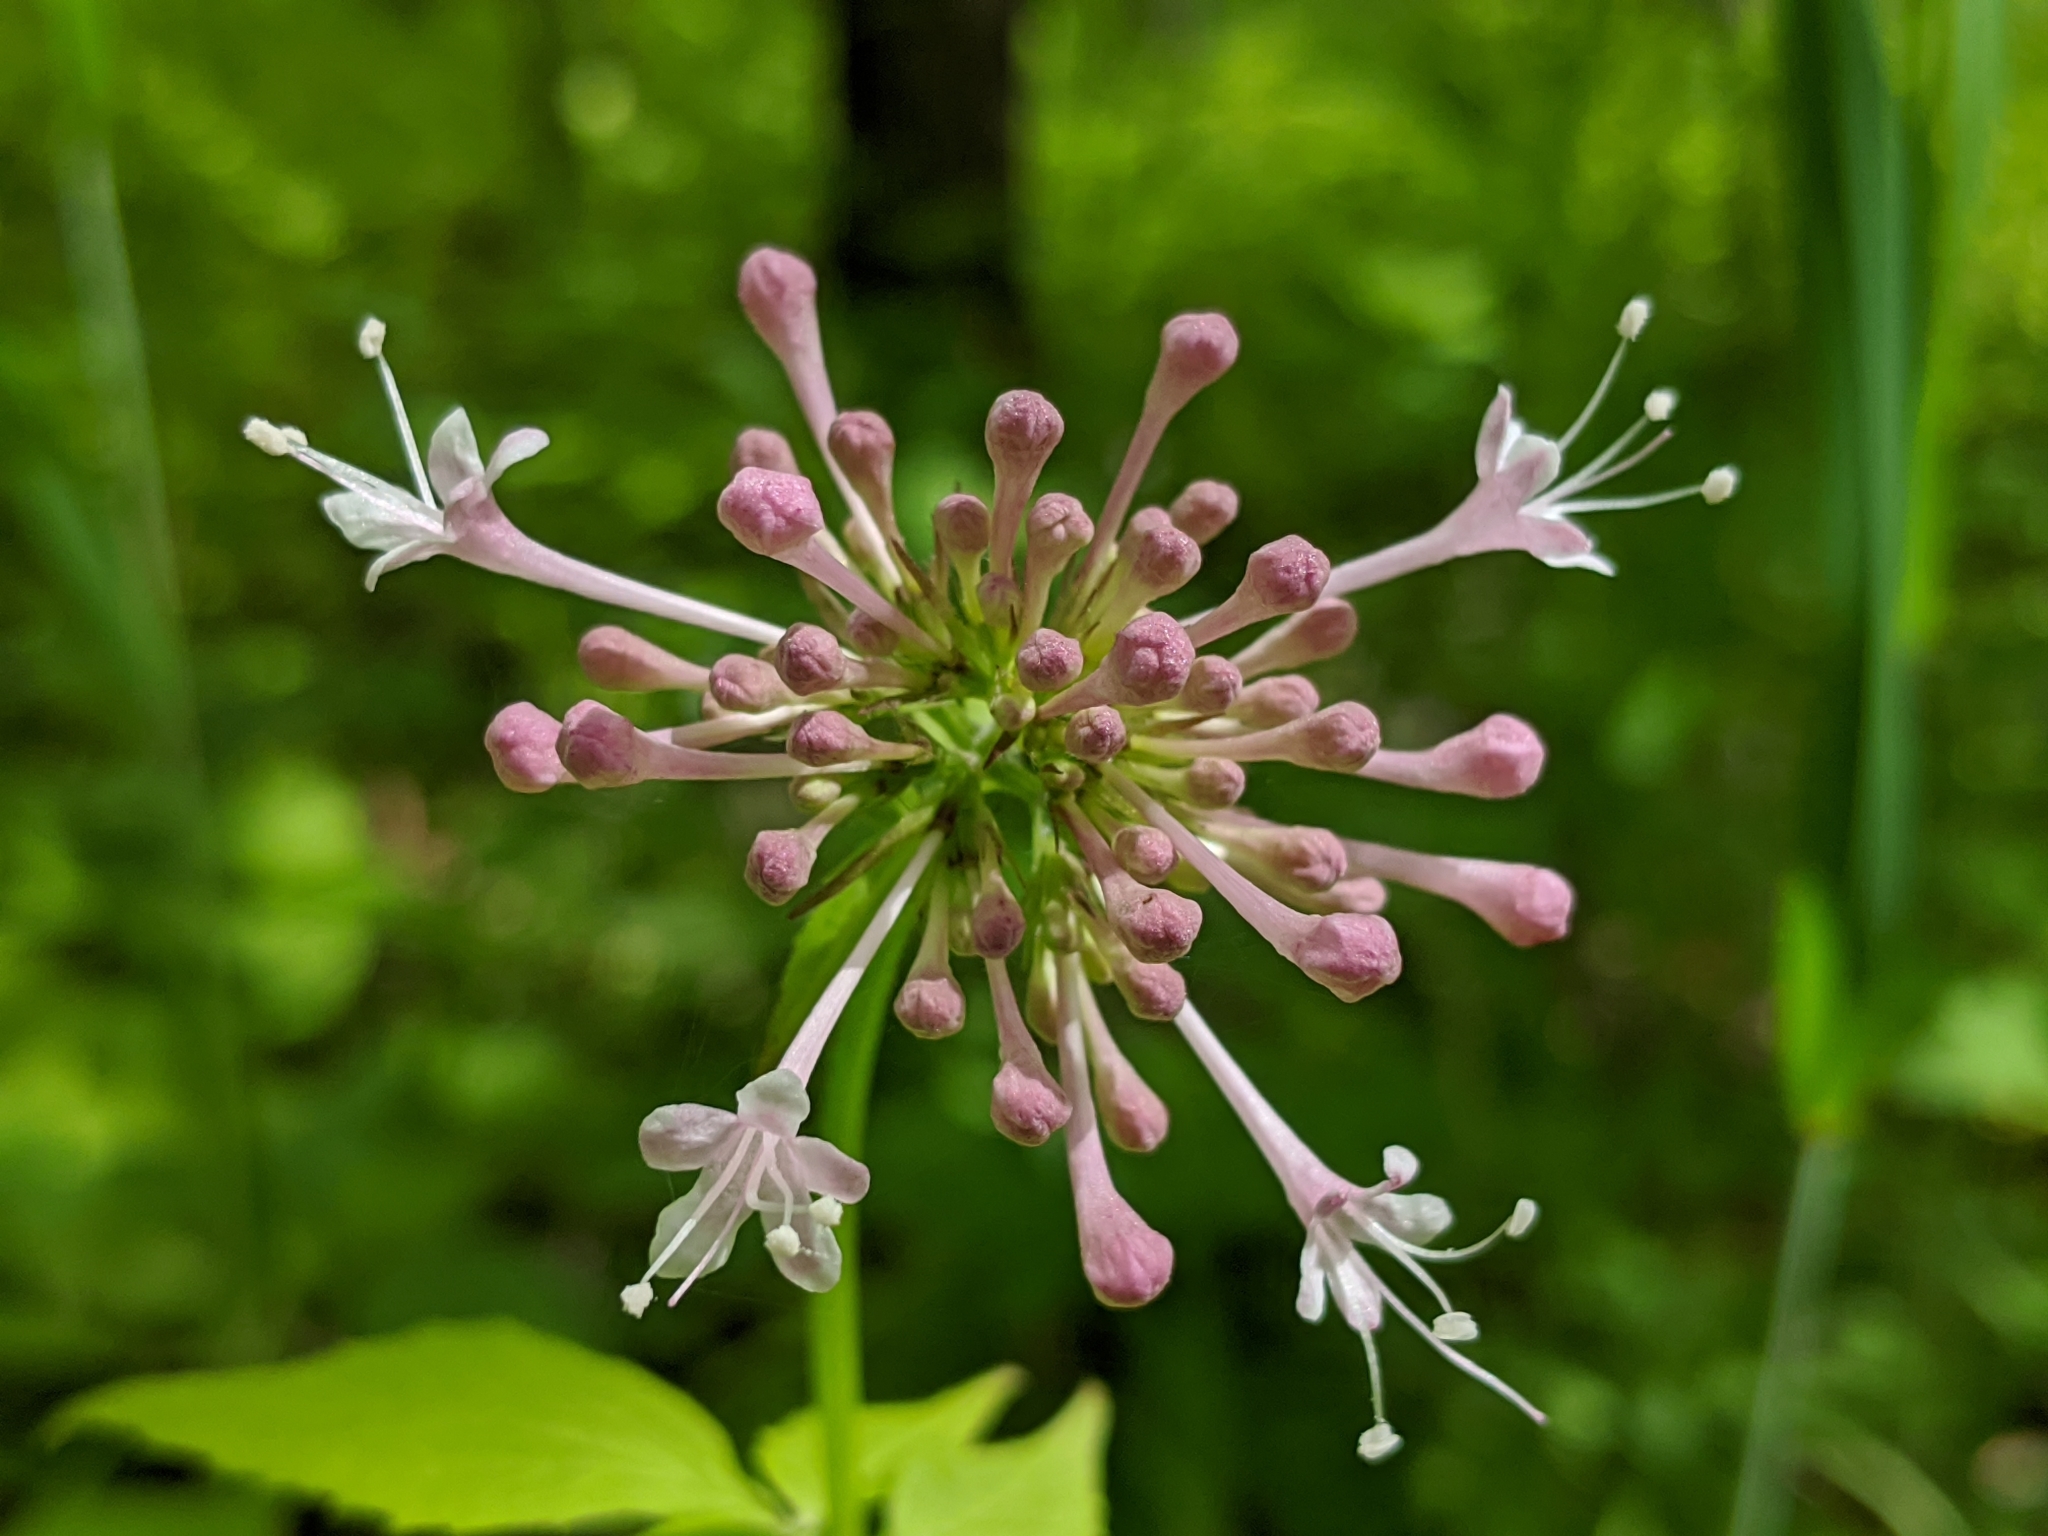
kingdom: Plantae
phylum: Tracheophyta
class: Magnoliopsida
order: Dipsacales
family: Caprifoliaceae
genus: Valeriana
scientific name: Valeriana pauciflora
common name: Long-tube valeriana
